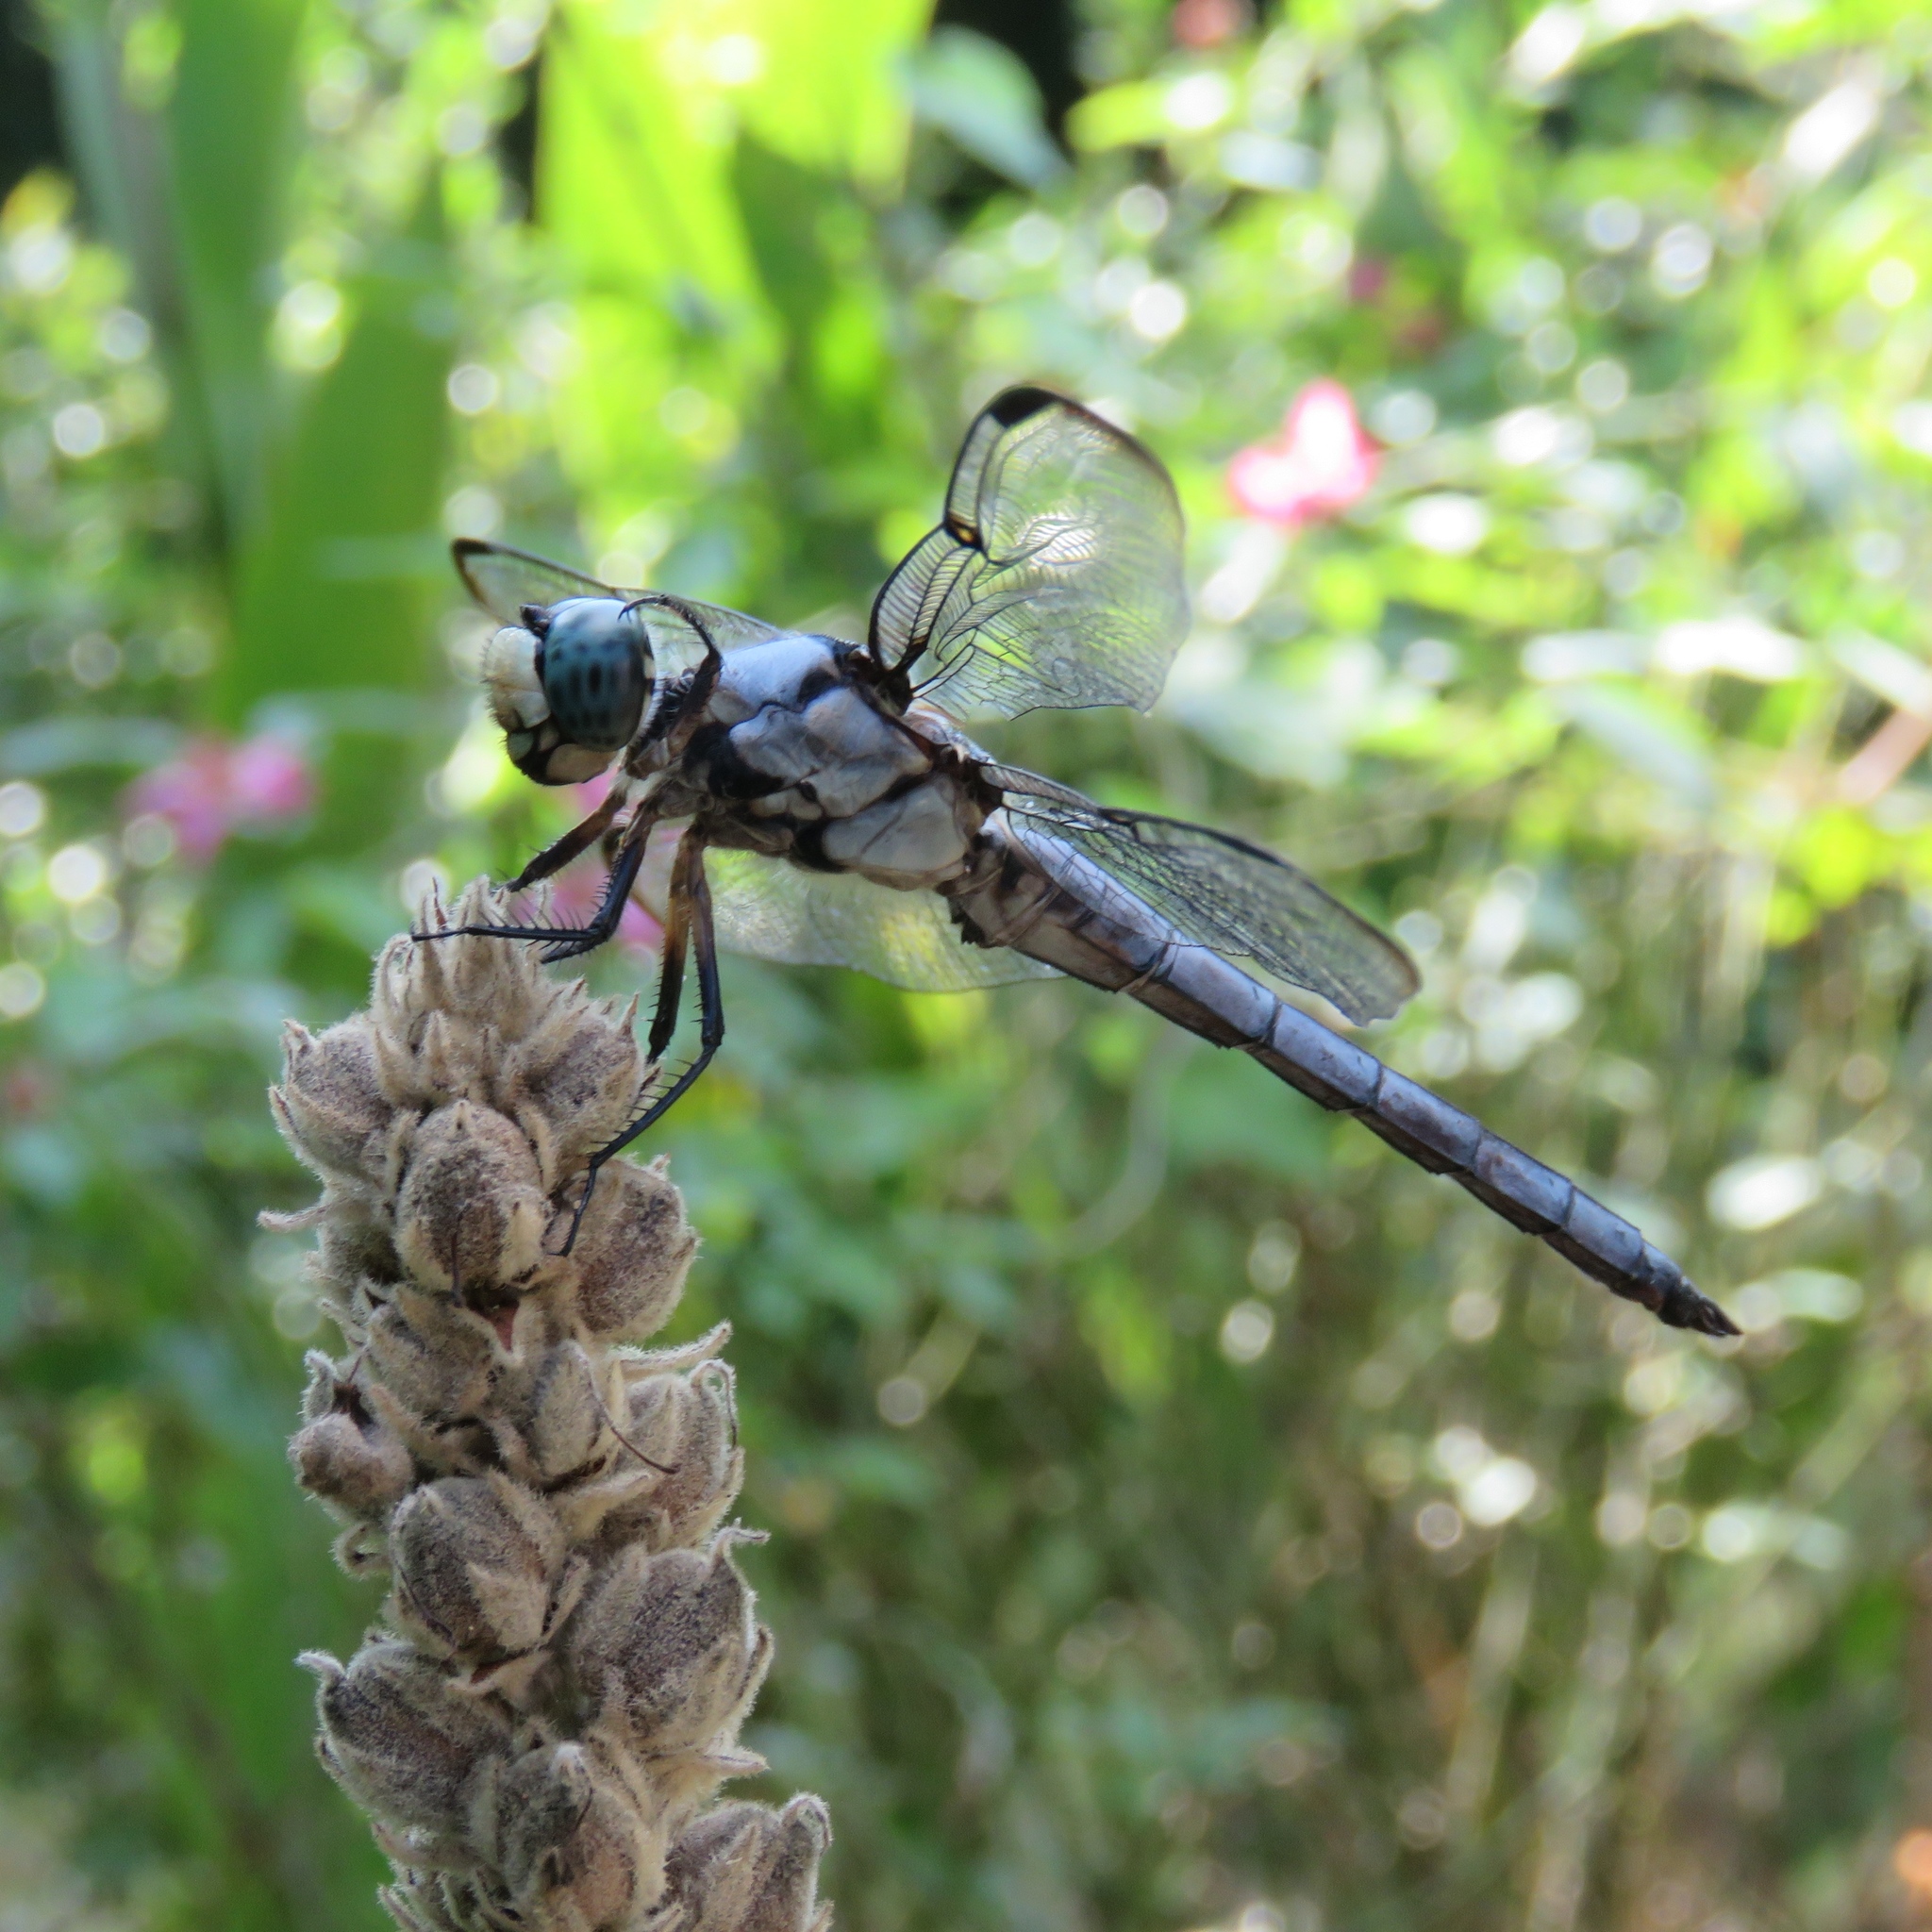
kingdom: Animalia
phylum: Arthropoda
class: Insecta
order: Odonata
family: Libellulidae
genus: Libellula
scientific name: Libellula vibrans
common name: Great blue skimmer
